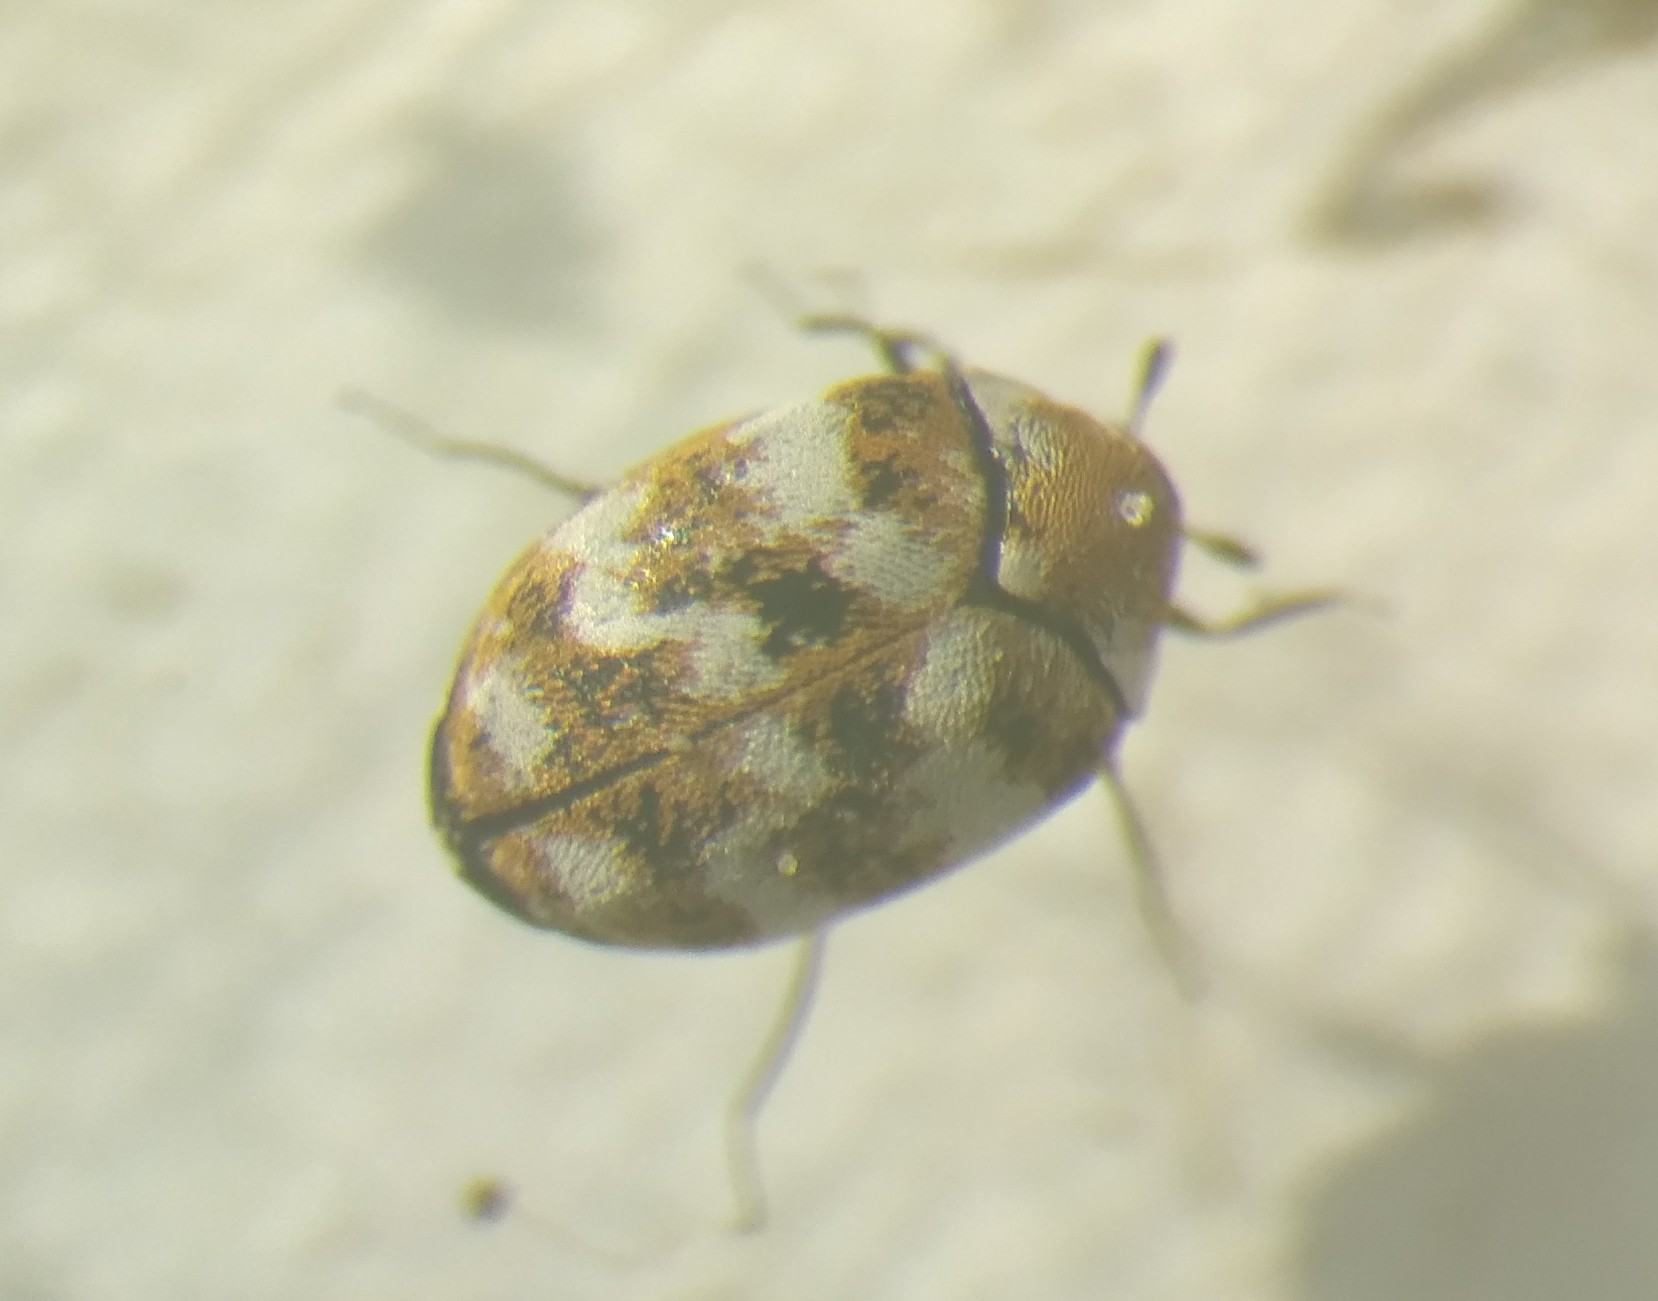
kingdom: Animalia
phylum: Arthropoda
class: Insecta
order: Coleoptera
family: Dermestidae
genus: Anthrenus
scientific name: Anthrenus verbasci
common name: Varied carpet beetle
